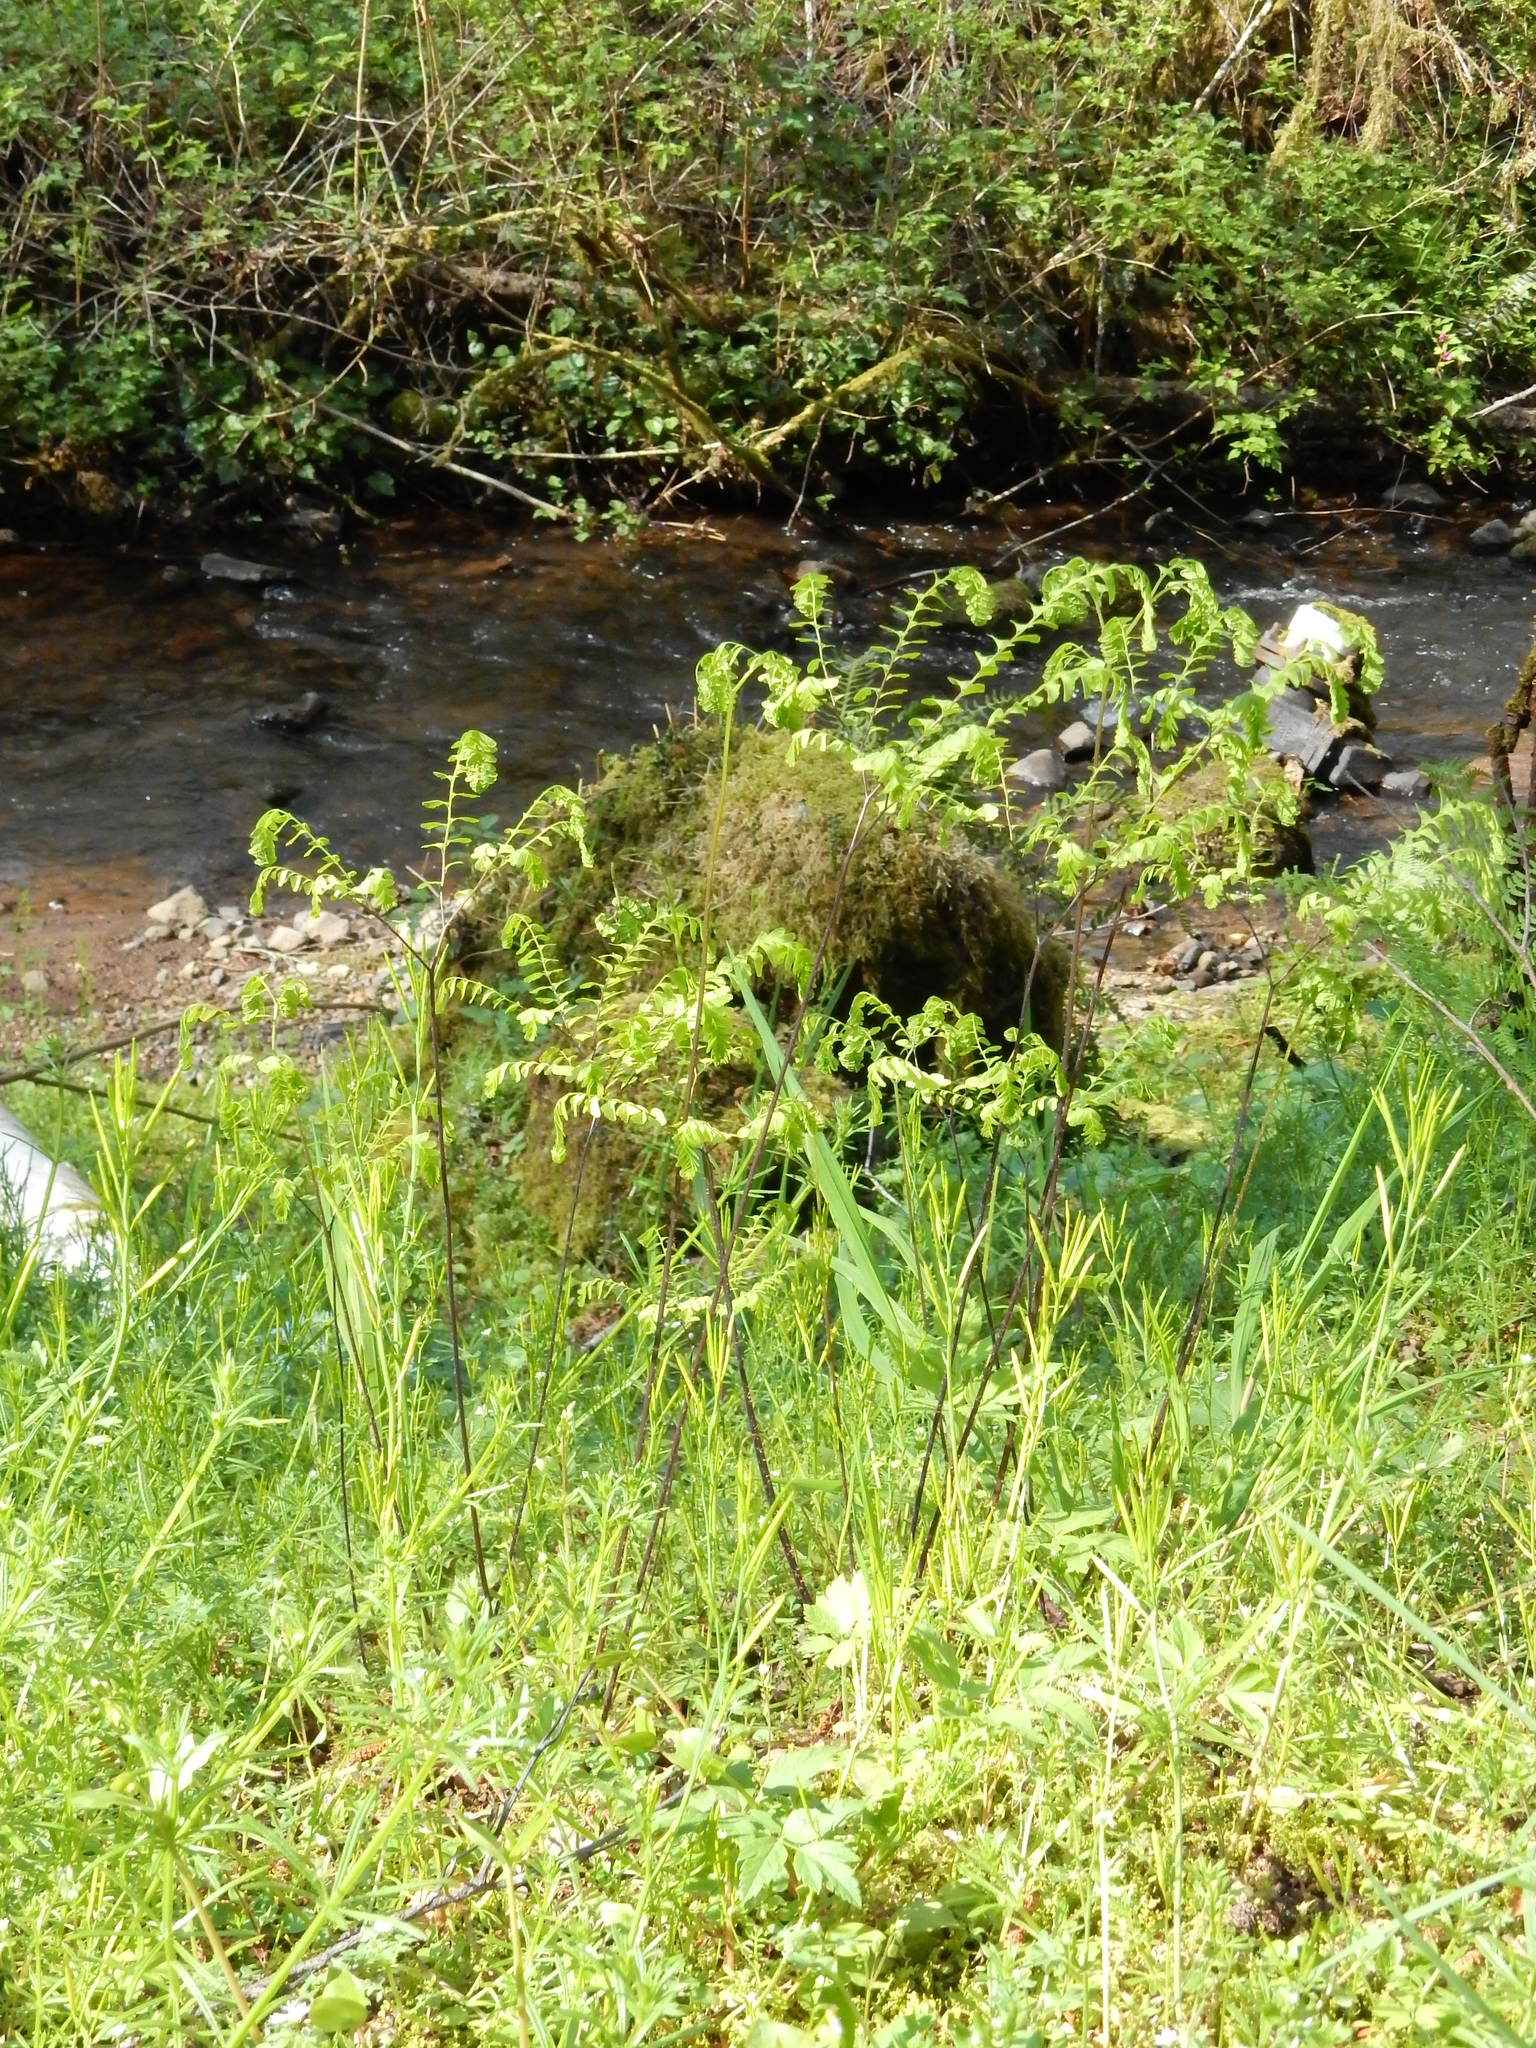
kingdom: Plantae
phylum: Tracheophyta
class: Polypodiopsida
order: Polypodiales
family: Pteridaceae
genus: Adiantum
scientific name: Adiantum aleuticum
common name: Aleutian maidenhair fern
